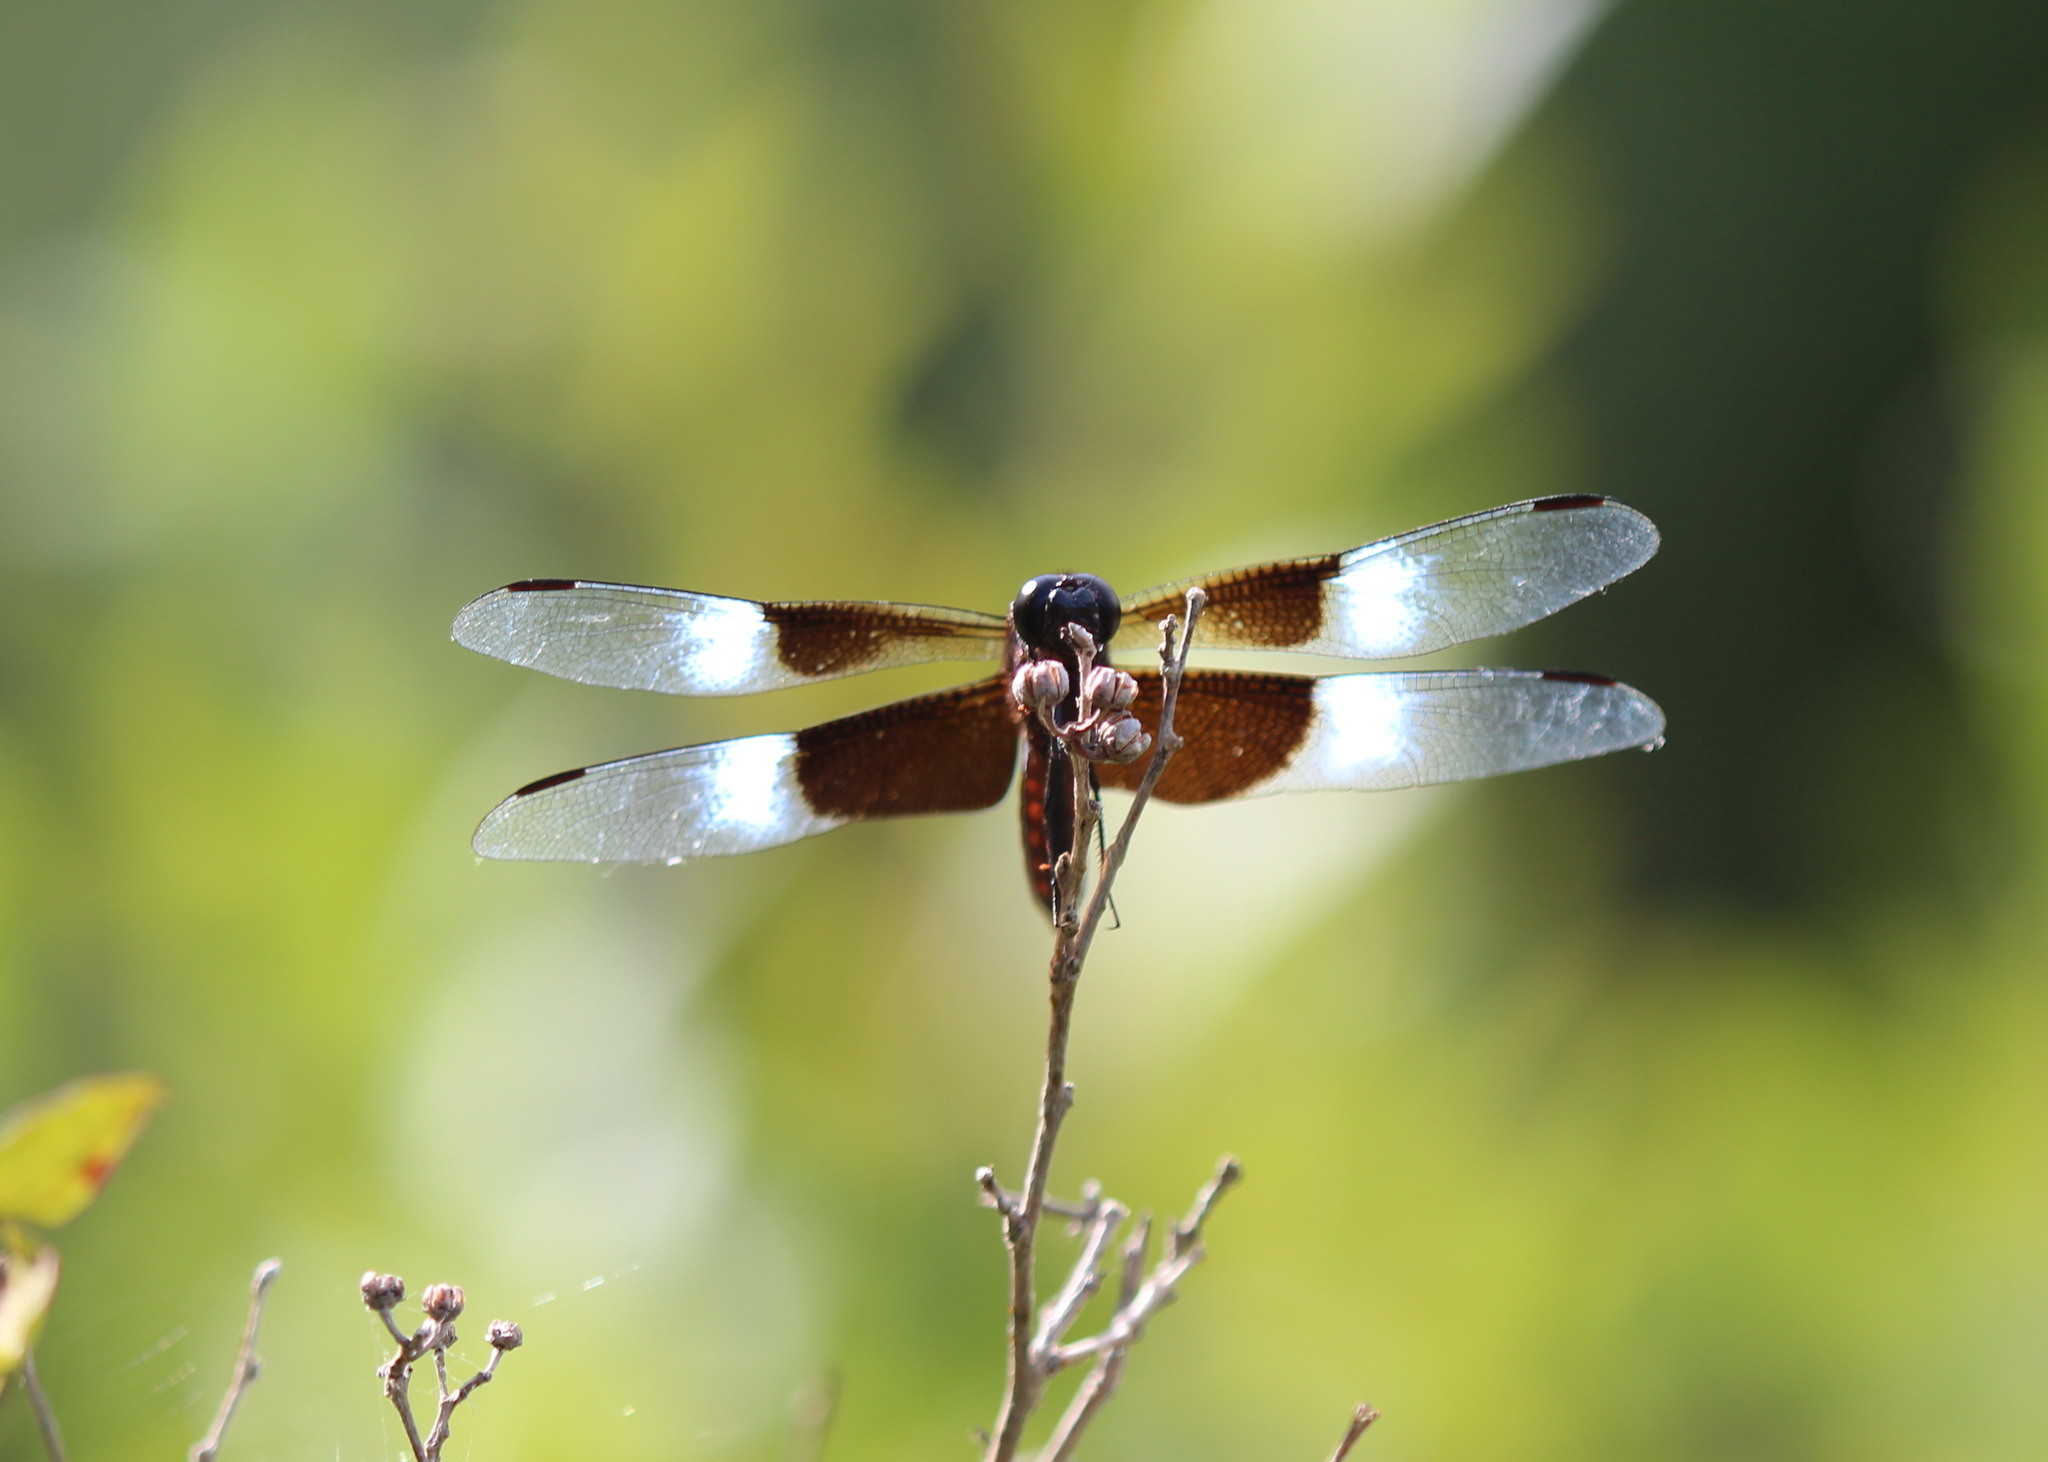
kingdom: Animalia
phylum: Arthropoda
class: Insecta
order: Odonata
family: Libellulidae
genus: Libellula
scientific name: Libellula luctuosa
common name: Widow skimmer
